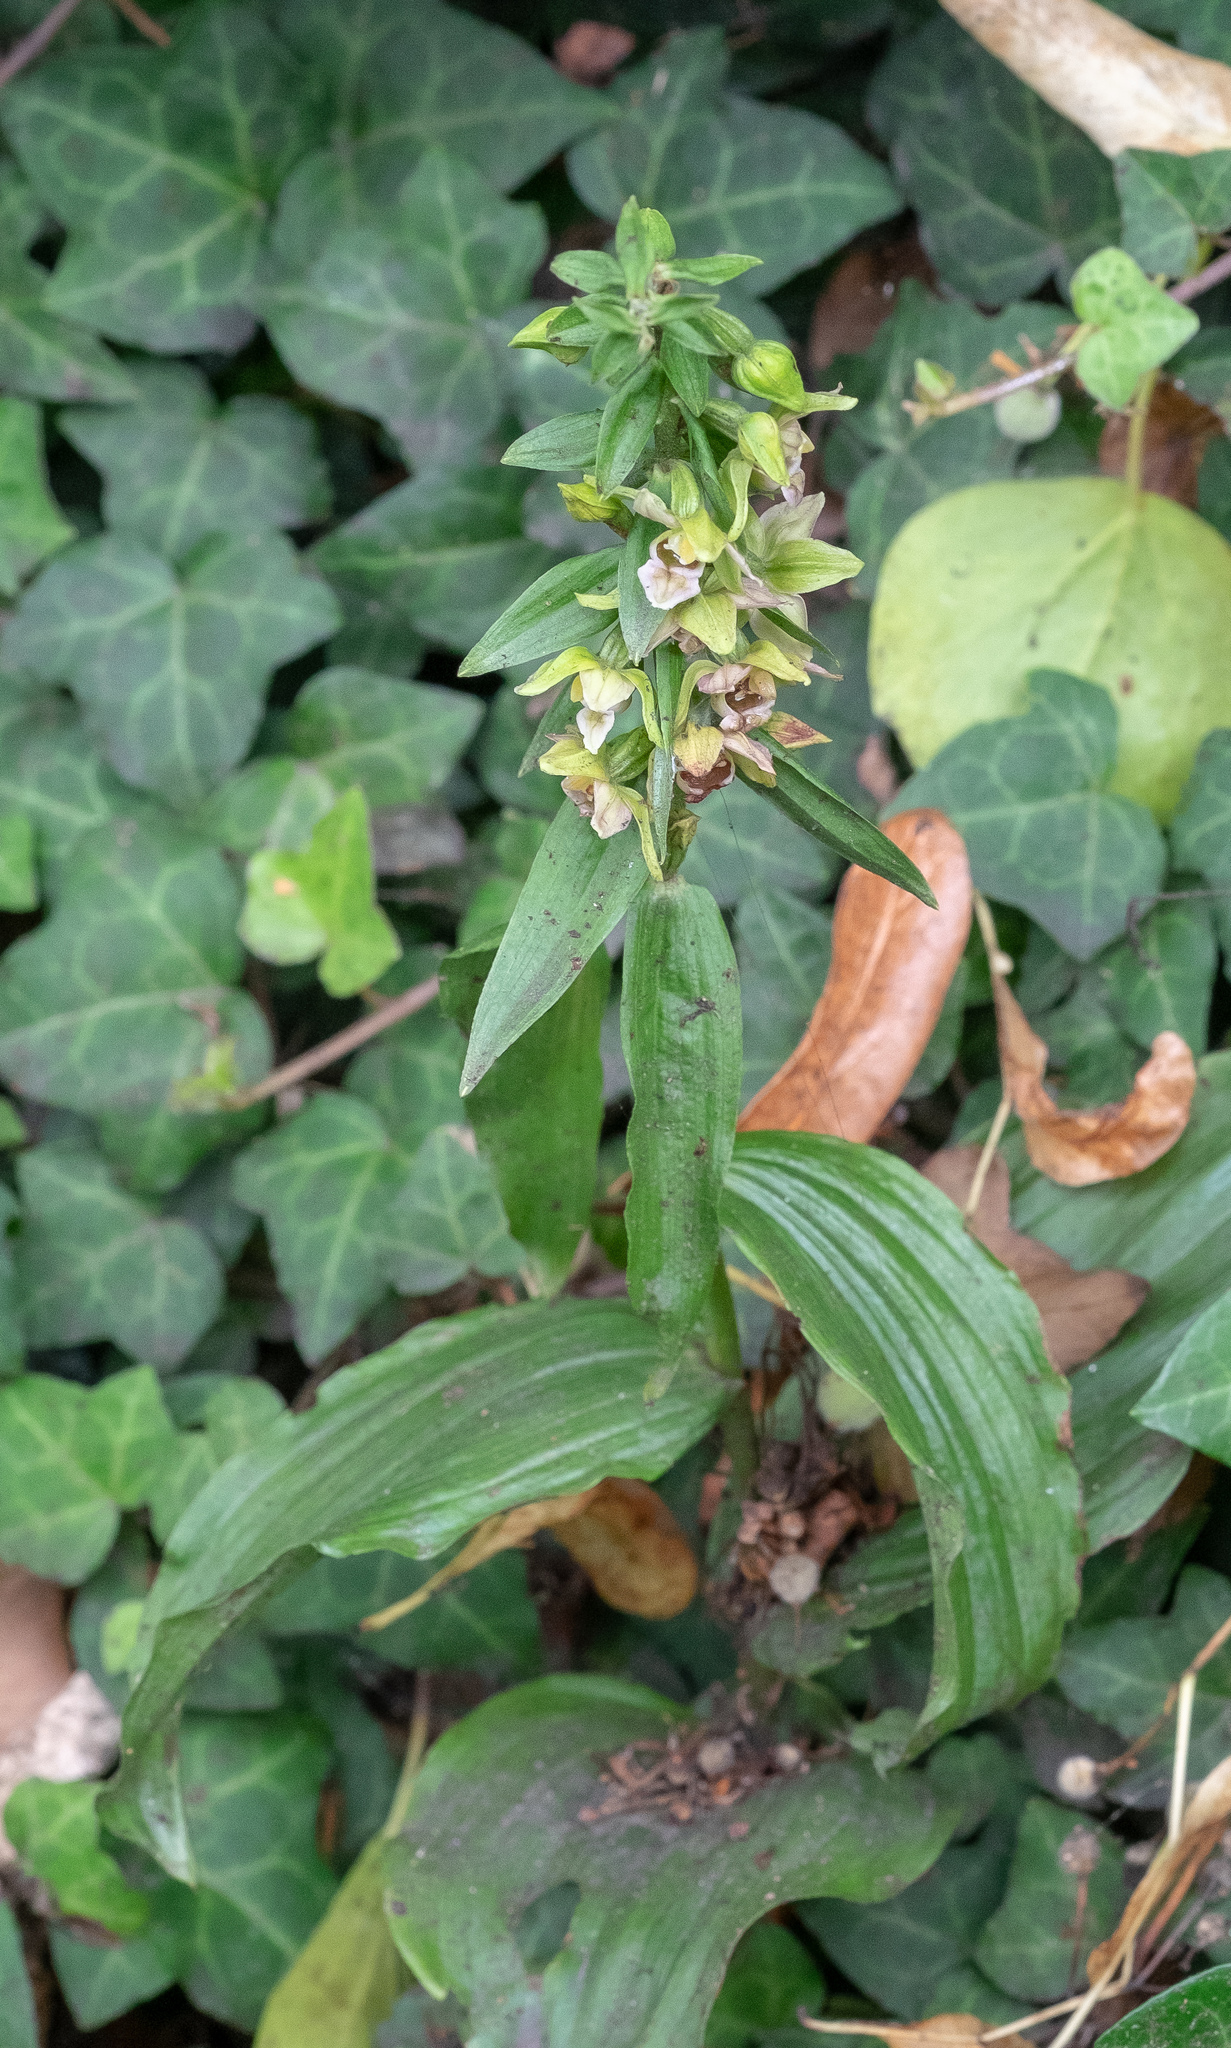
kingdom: Plantae
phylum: Tracheophyta
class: Liliopsida
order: Asparagales
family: Orchidaceae
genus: Epipactis
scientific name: Epipactis helleborine
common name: Broad-leaved helleborine
